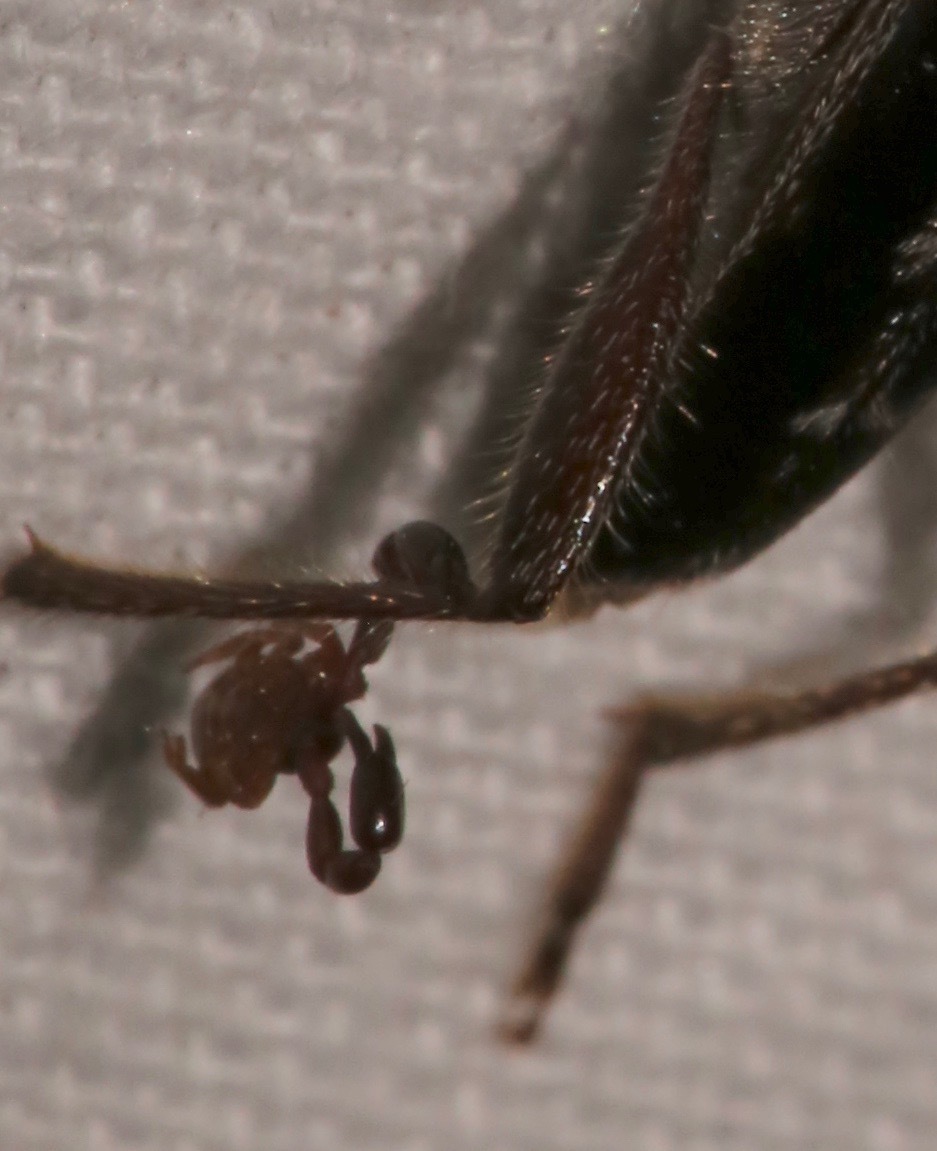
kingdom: Animalia
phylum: Arthropoda
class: Insecta
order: Coleoptera
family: Cerambycidae
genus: Xylotrechus
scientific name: Xylotrechus sagittatus
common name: Arrowhead borer
